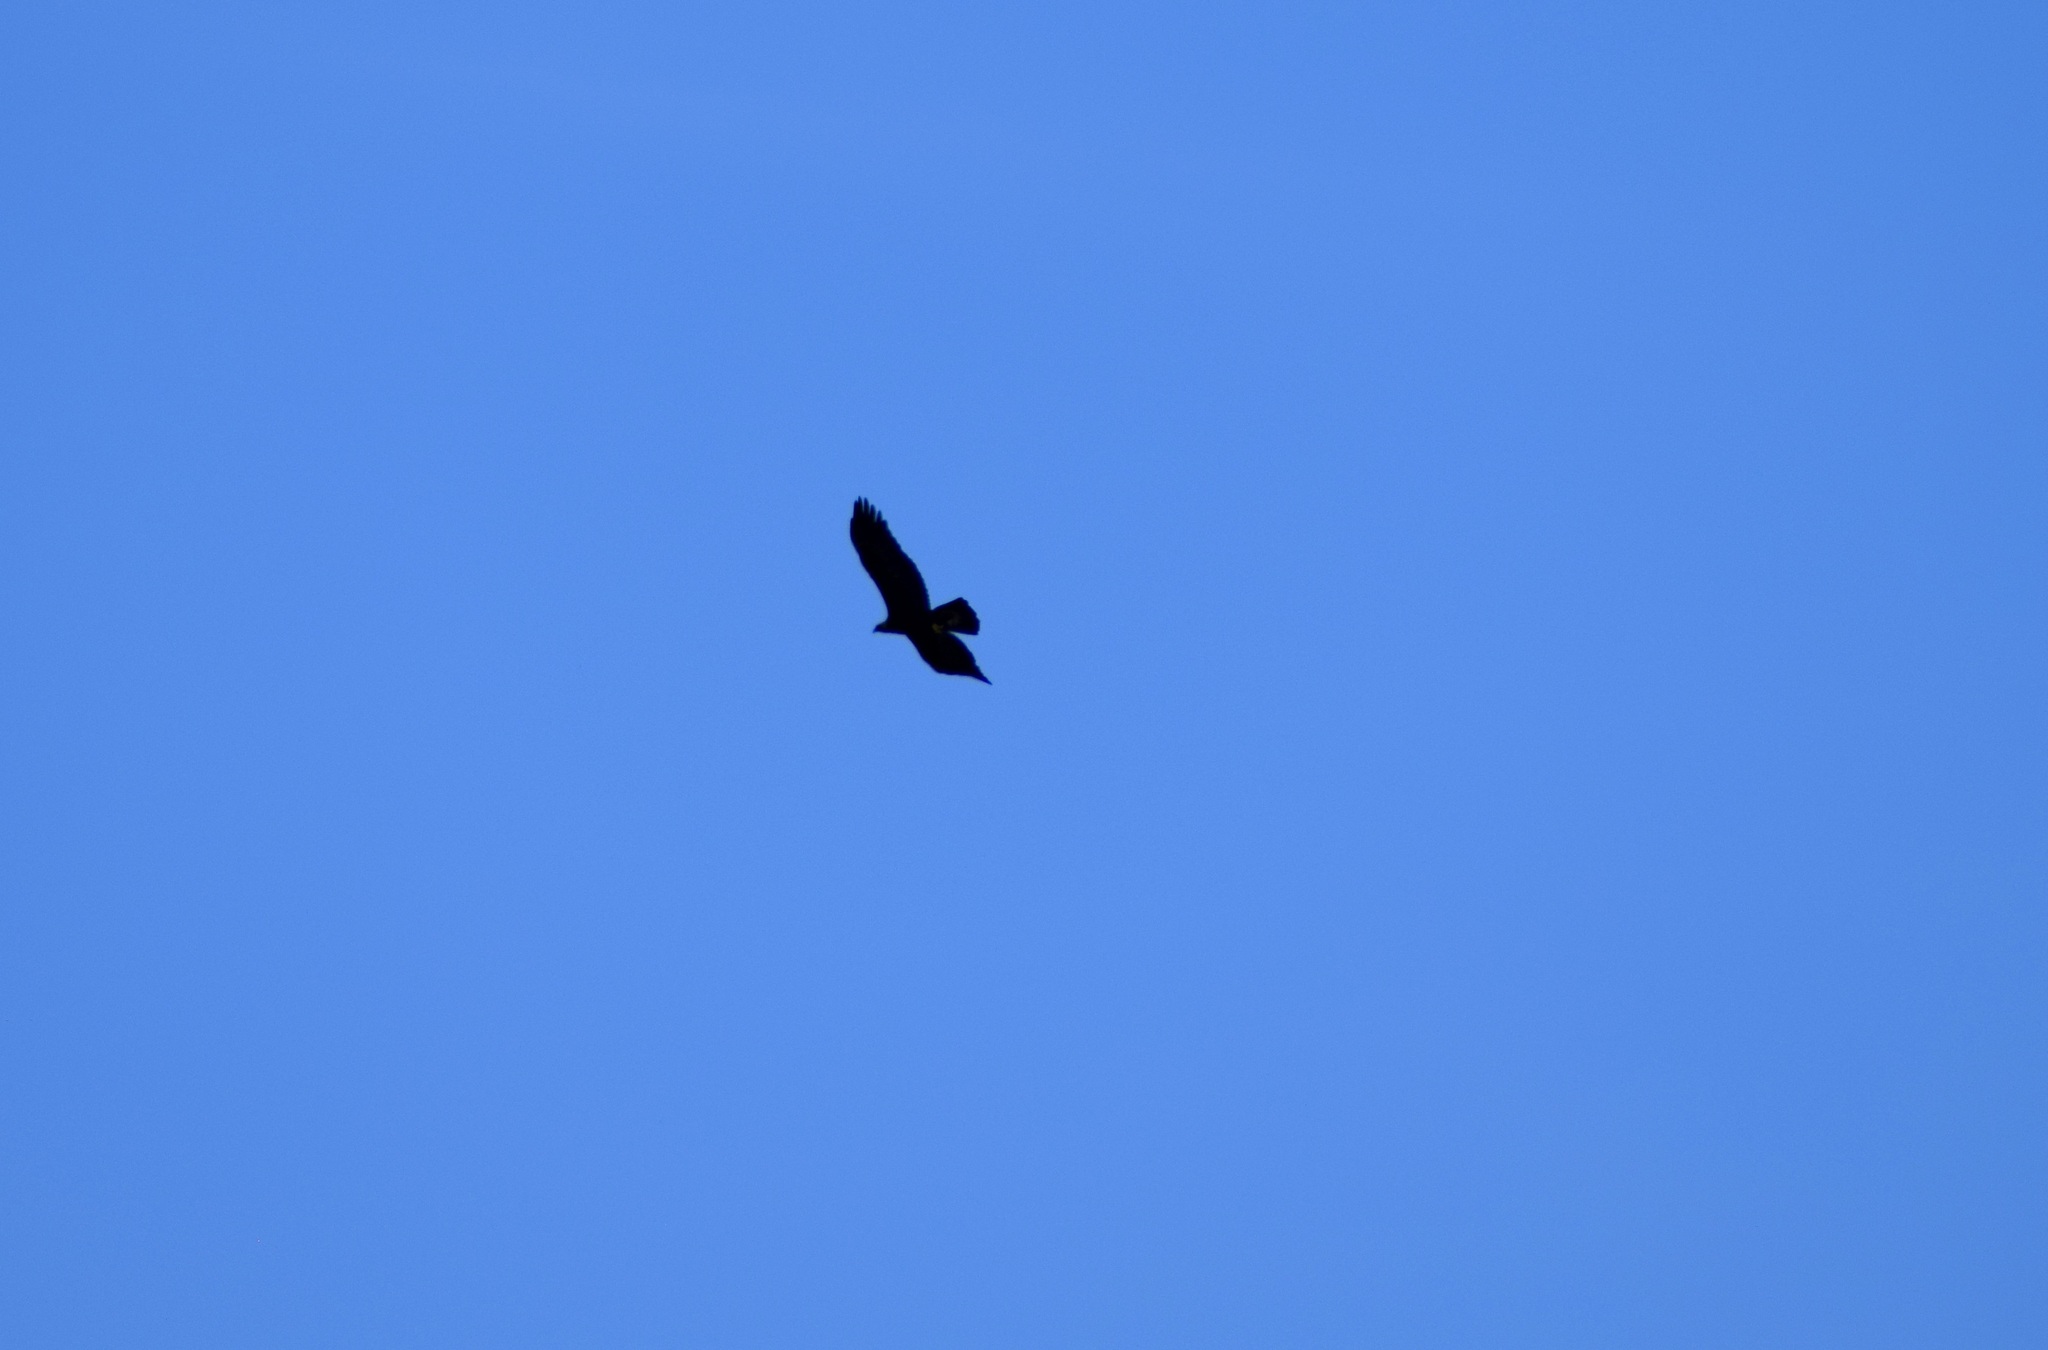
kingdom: Animalia
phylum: Chordata
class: Aves
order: Accipitriformes
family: Accipitridae
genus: Aquila
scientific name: Aquila chrysaetos
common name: Golden eagle
